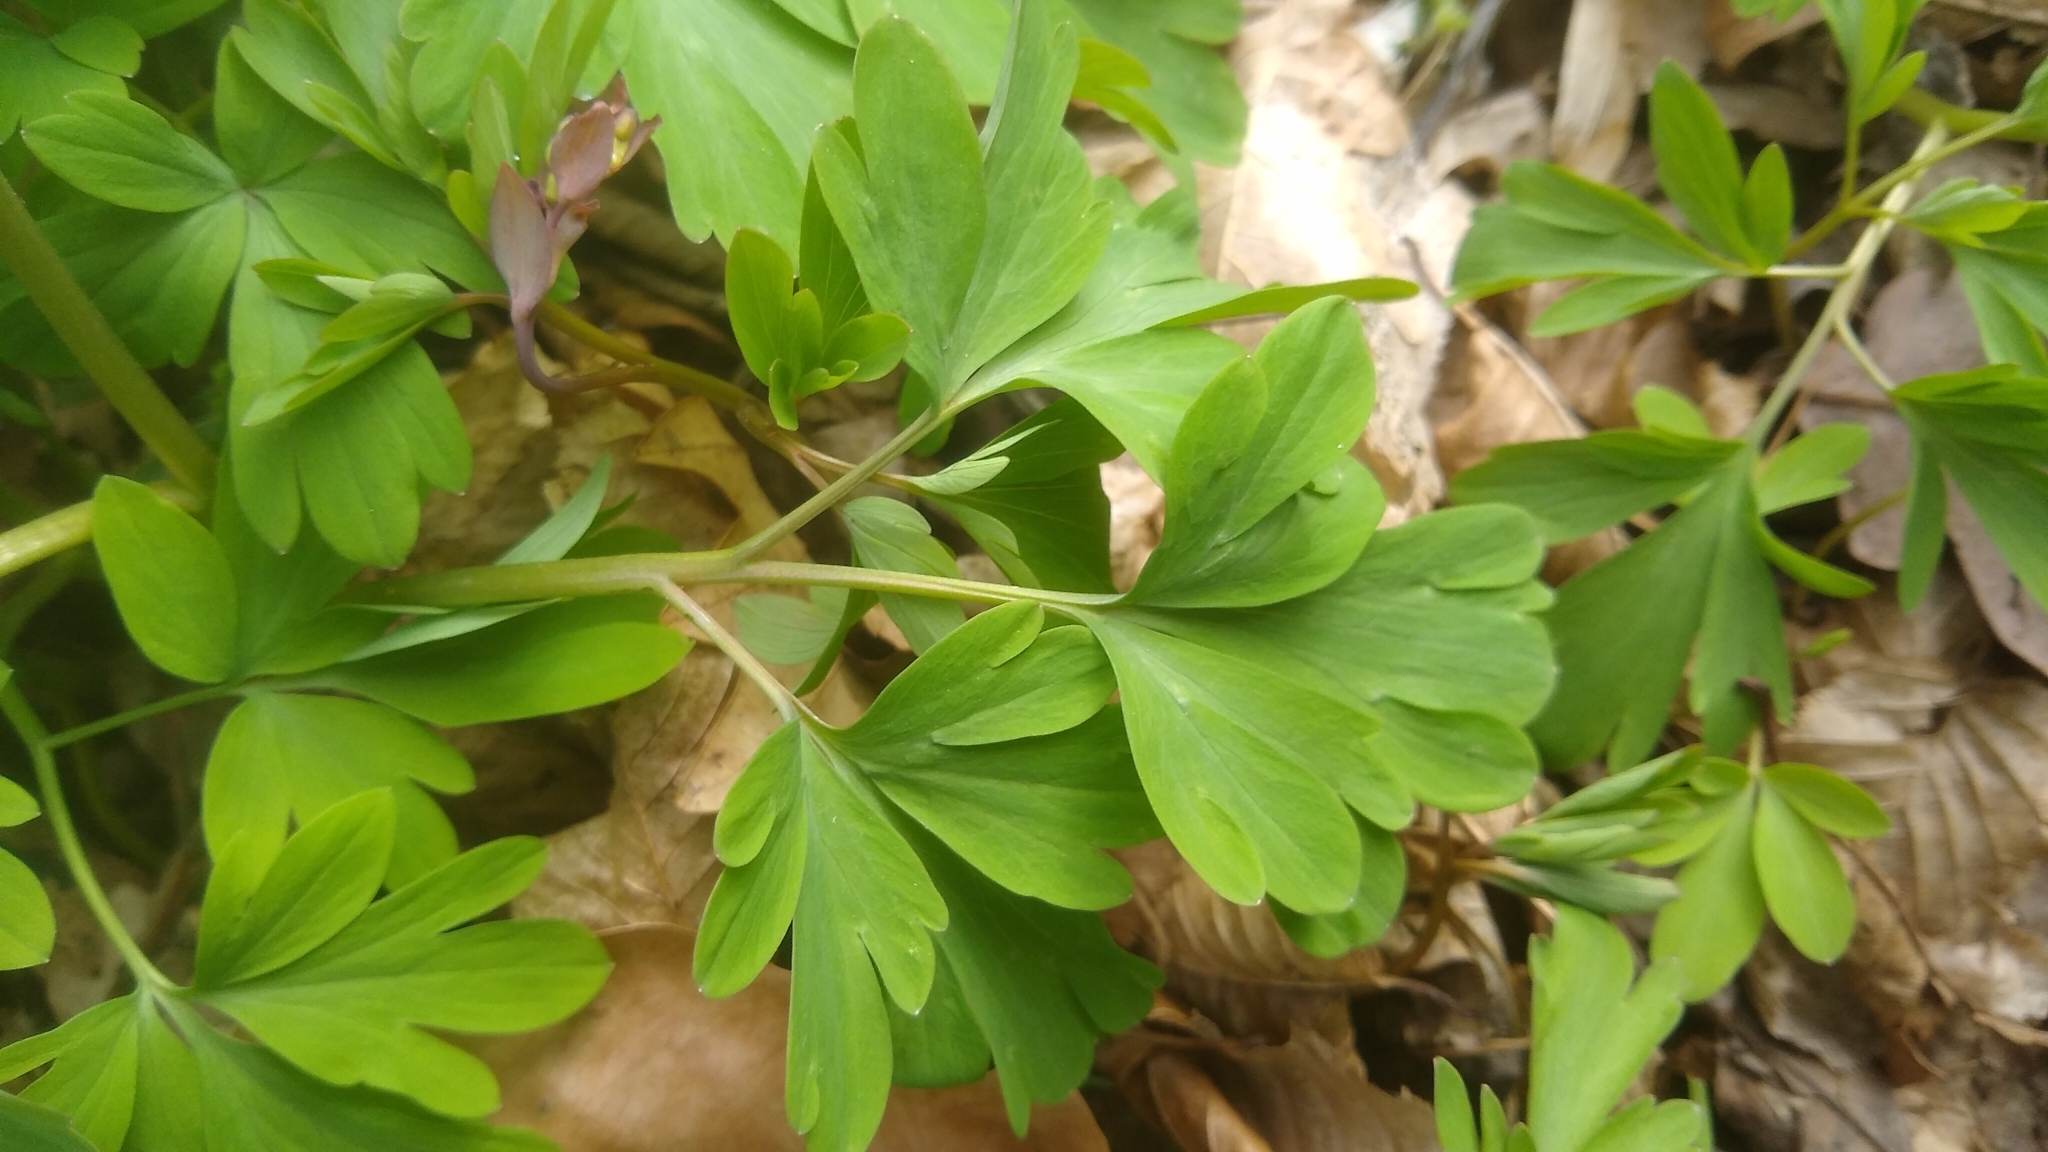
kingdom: Plantae
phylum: Tracheophyta
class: Magnoliopsida
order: Ranunculales
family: Papaveraceae
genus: Corydalis
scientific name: Corydalis cava
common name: Hollowroot
